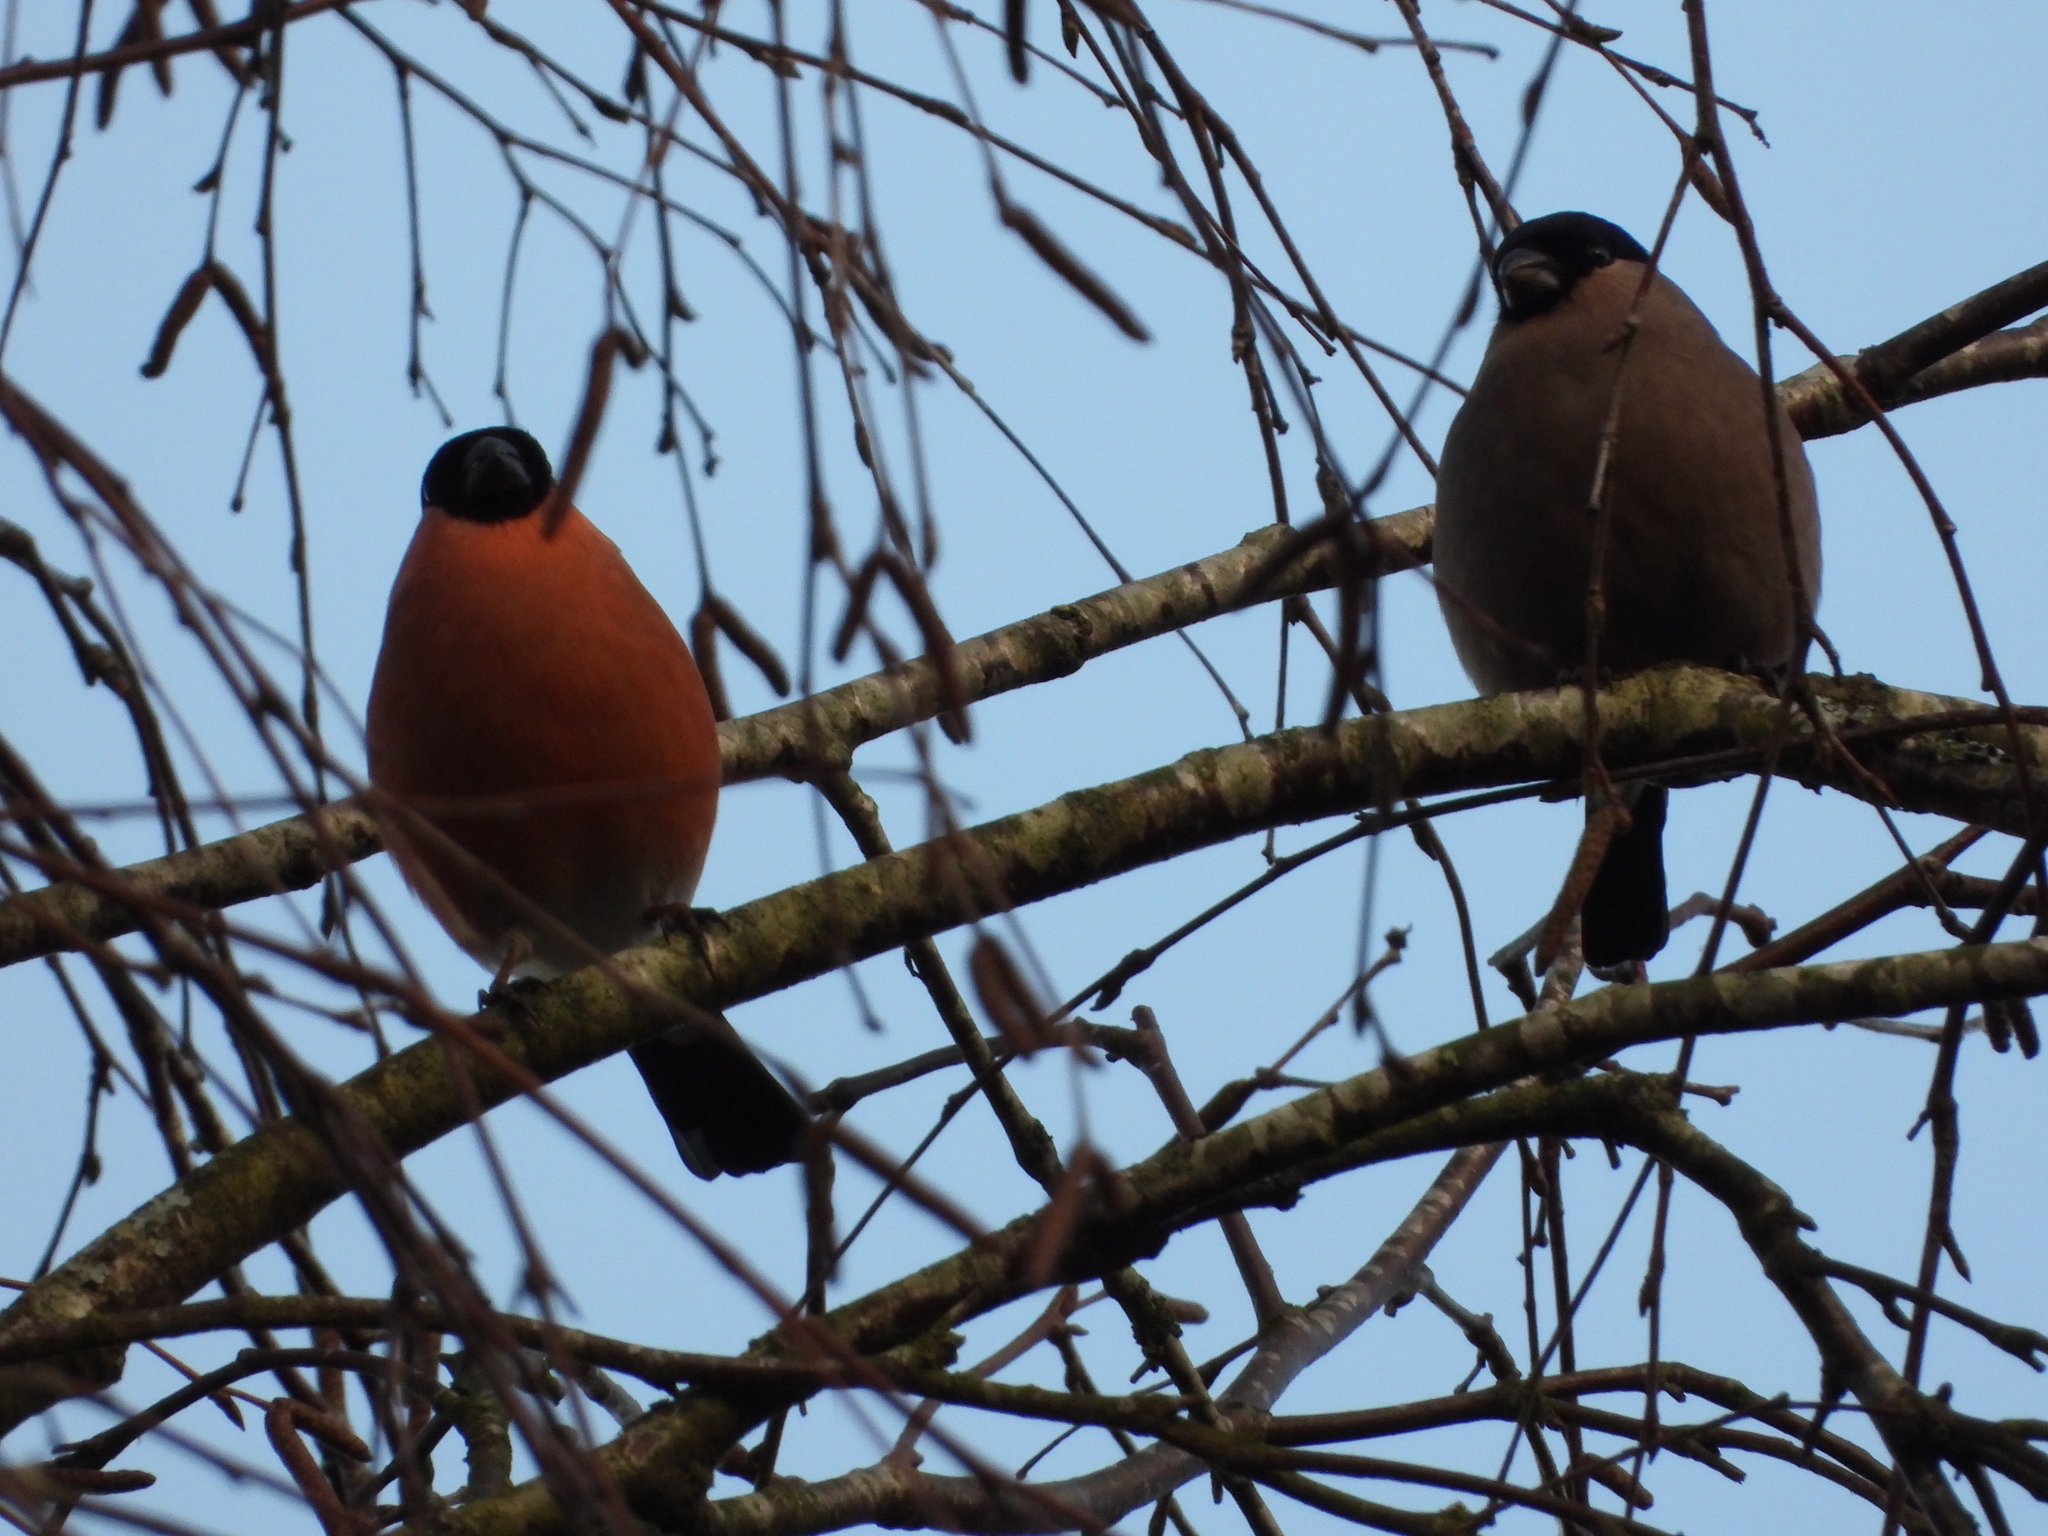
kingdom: Animalia
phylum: Chordata
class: Aves
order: Passeriformes
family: Fringillidae
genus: Pyrrhula
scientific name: Pyrrhula pyrrhula
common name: Eurasian bullfinch
